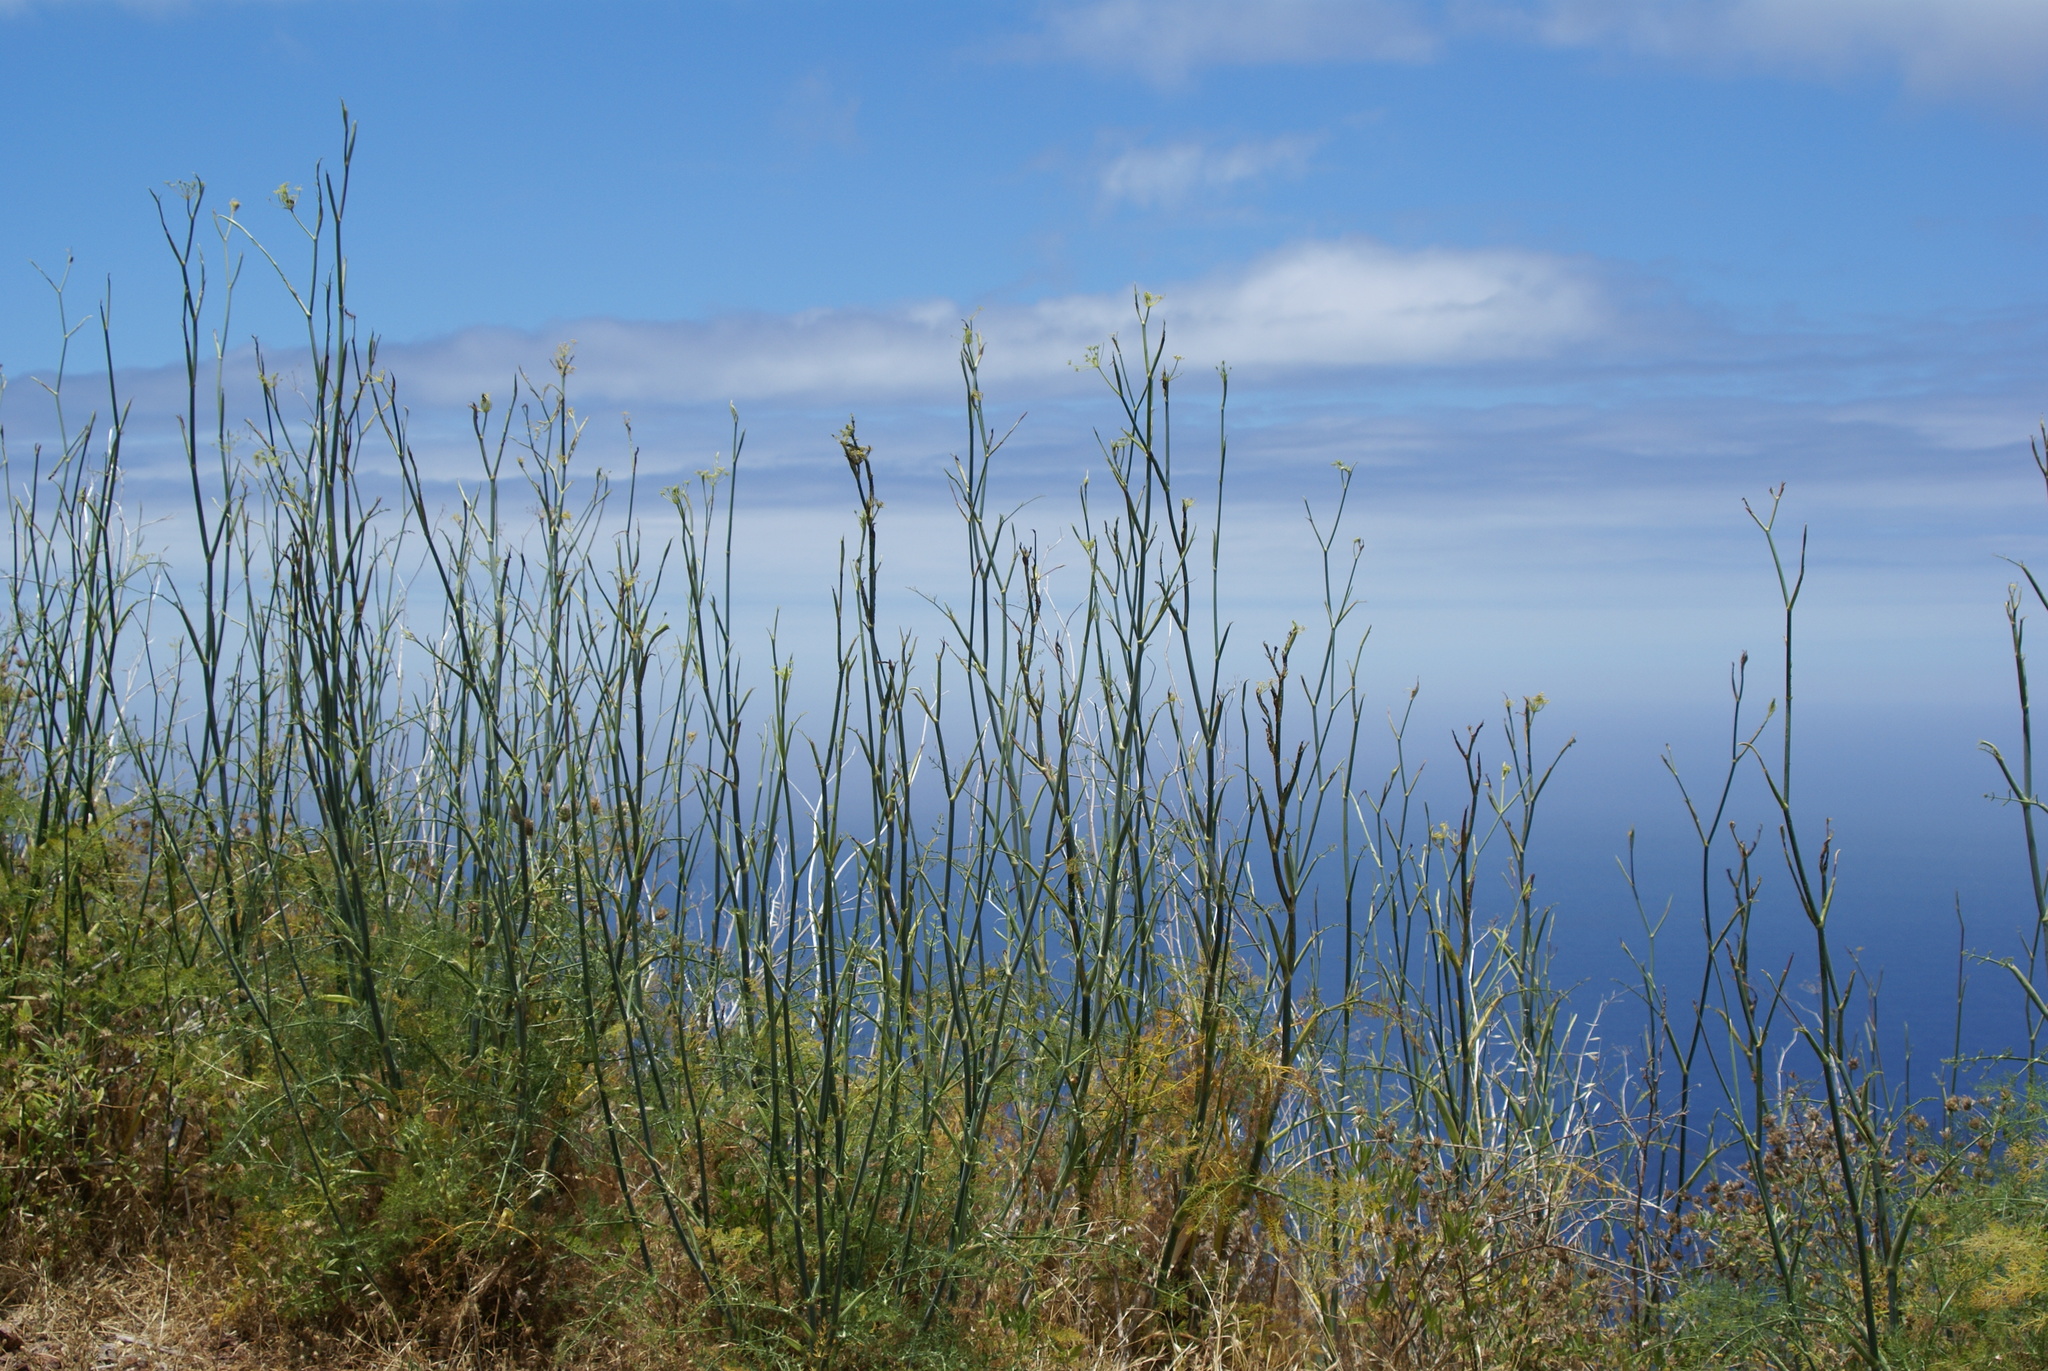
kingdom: Plantae
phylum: Tracheophyta
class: Magnoliopsida
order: Apiales
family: Apiaceae
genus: Foeniculum
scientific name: Foeniculum vulgare
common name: Fennel
